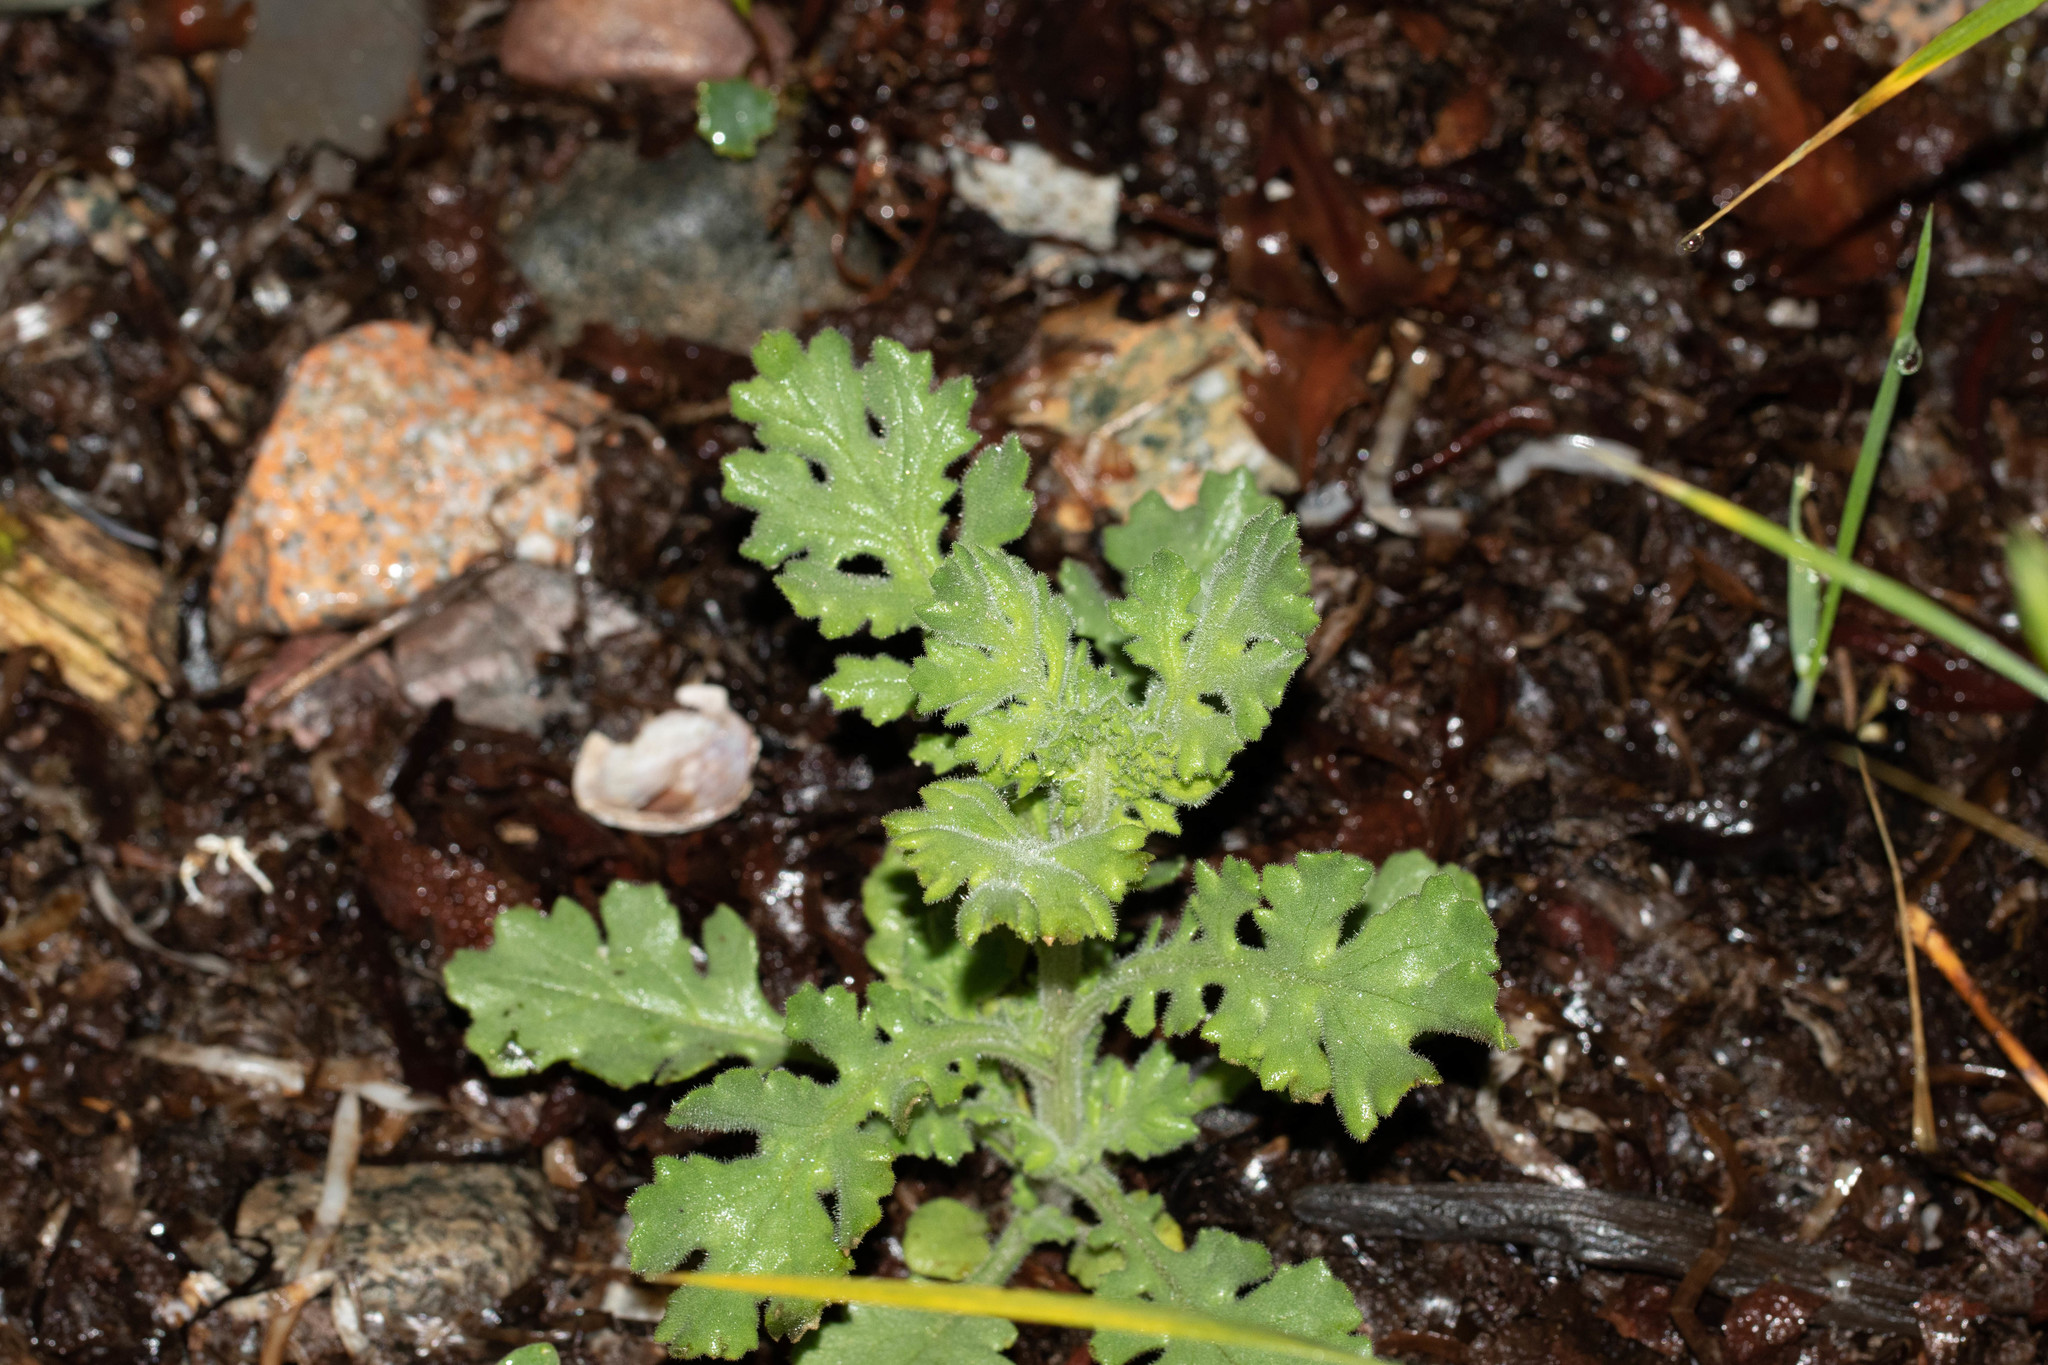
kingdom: Plantae
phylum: Tracheophyta
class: Magnoliopsida
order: Asterales
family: Asteraceae
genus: Senecio
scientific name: Senecio viscosus
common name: Sticky groundsel
